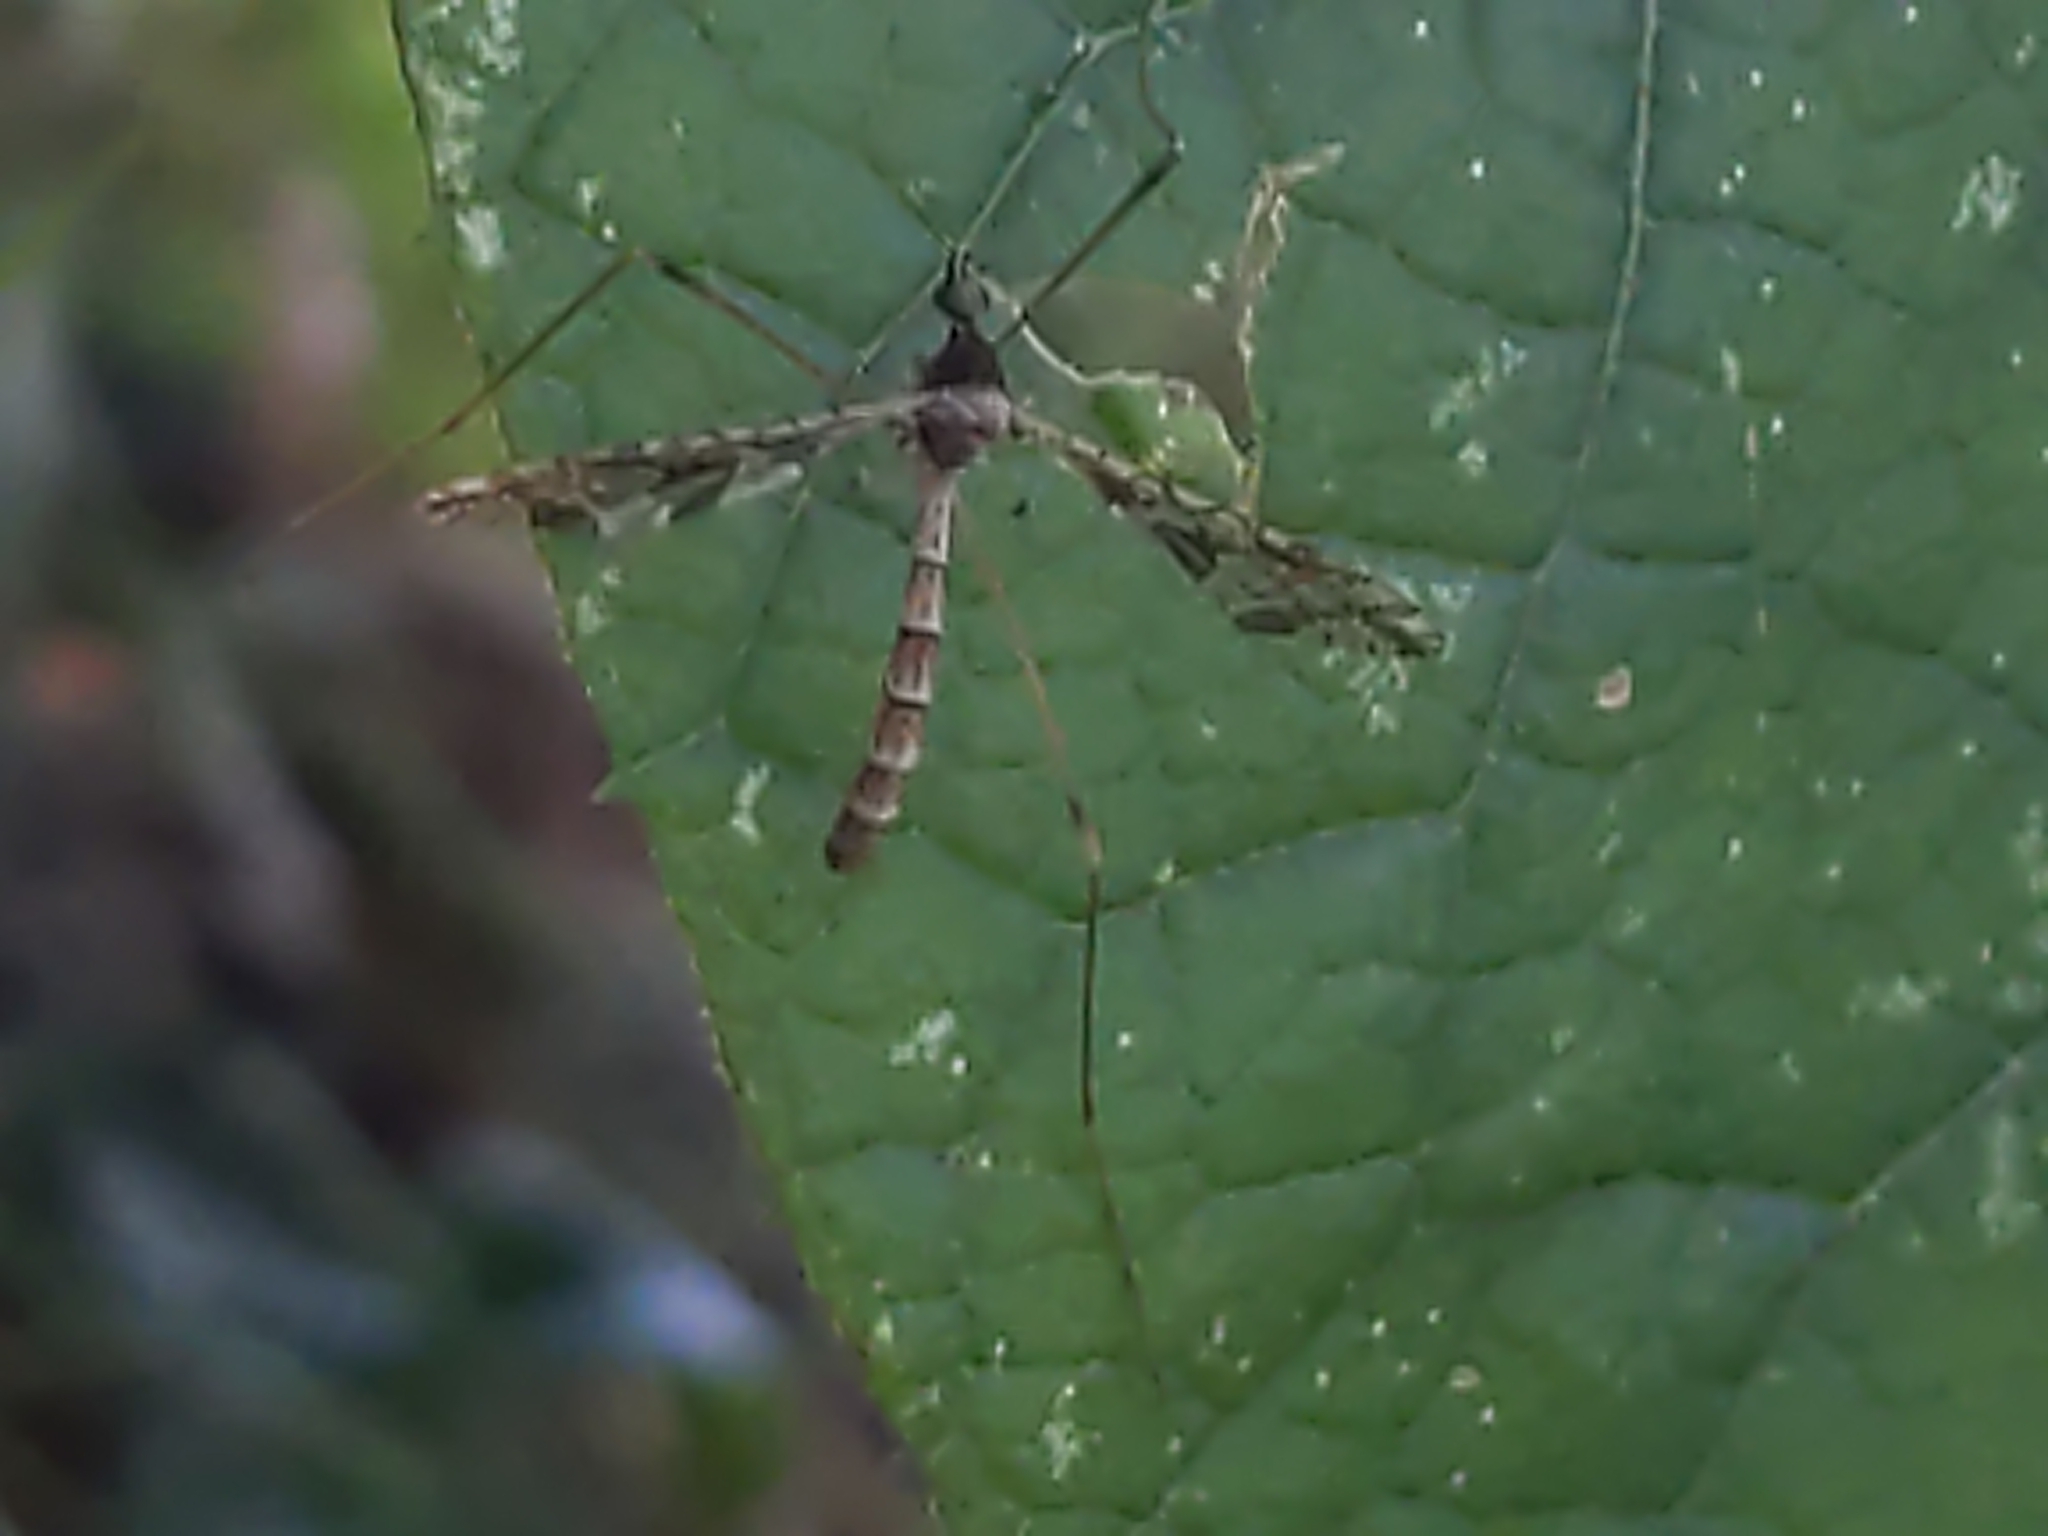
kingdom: Animalia
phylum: Arthropoda
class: Insecta
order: Diptera
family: Limoniidae
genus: Epiphragma
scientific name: Epiphragma solatrix
